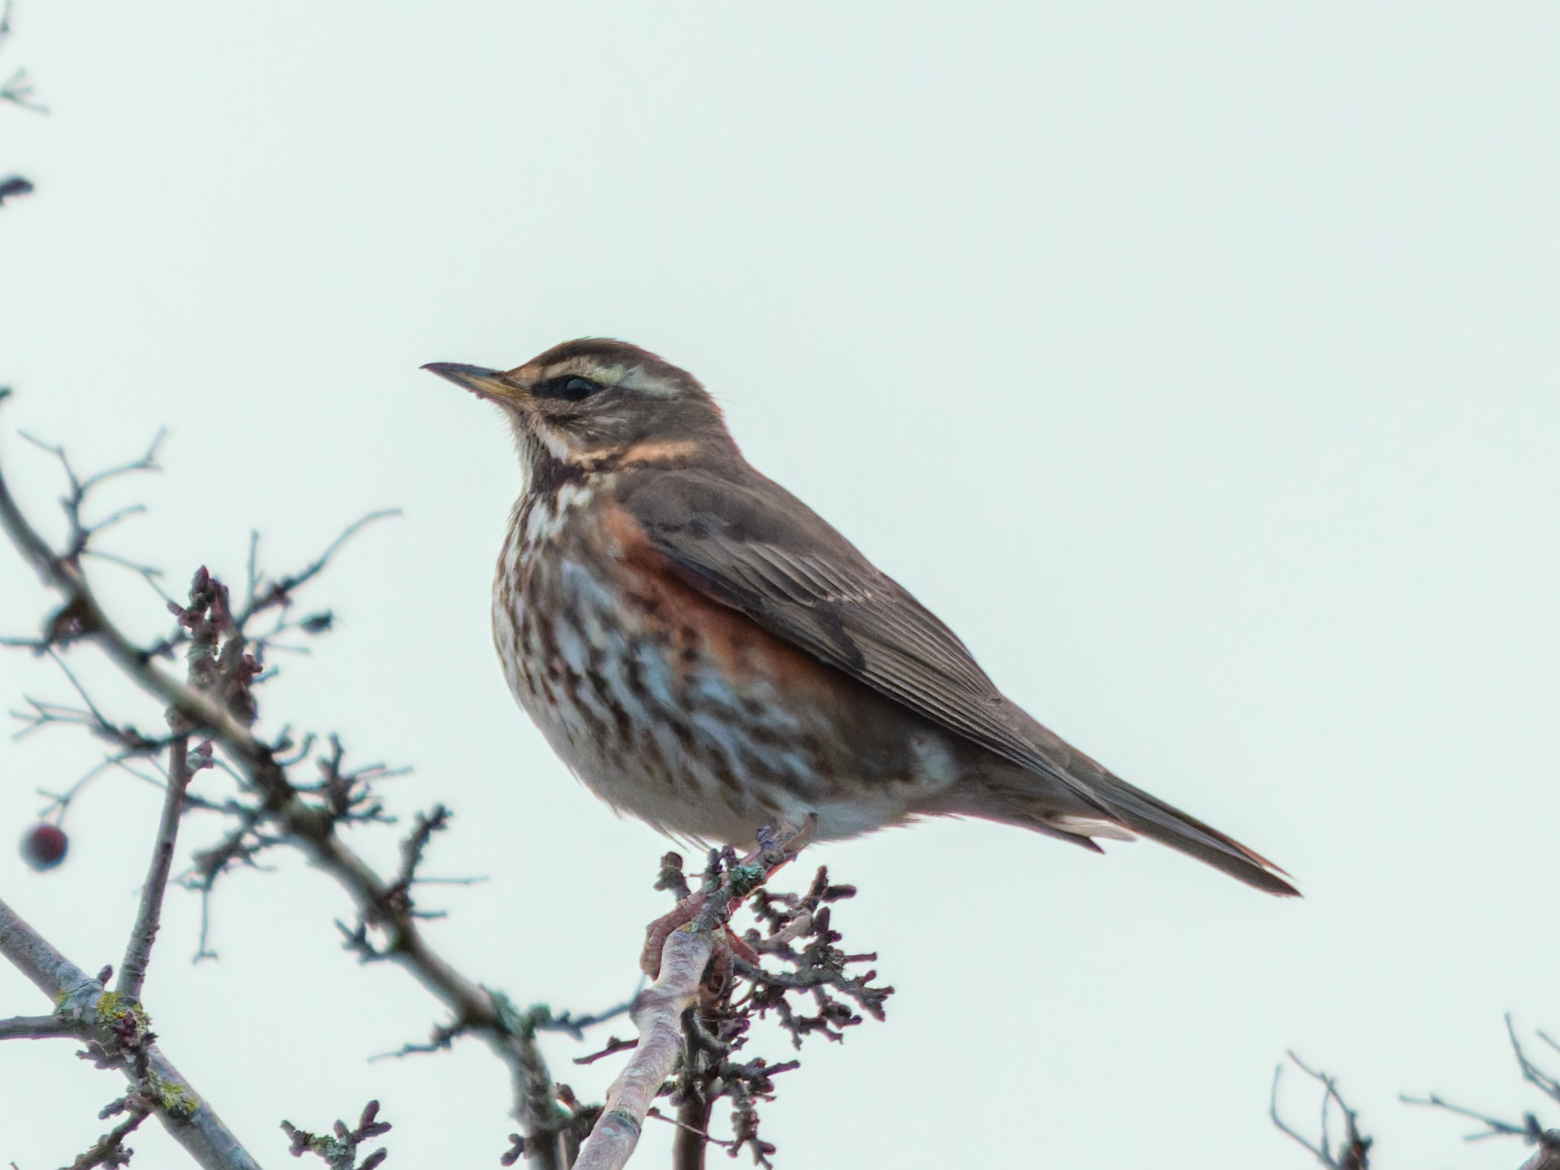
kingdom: Animalia
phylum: Chordata
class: Aves
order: Passeriformes
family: Turdidae
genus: Turdus
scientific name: Turdus iliacus
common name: Redwing
